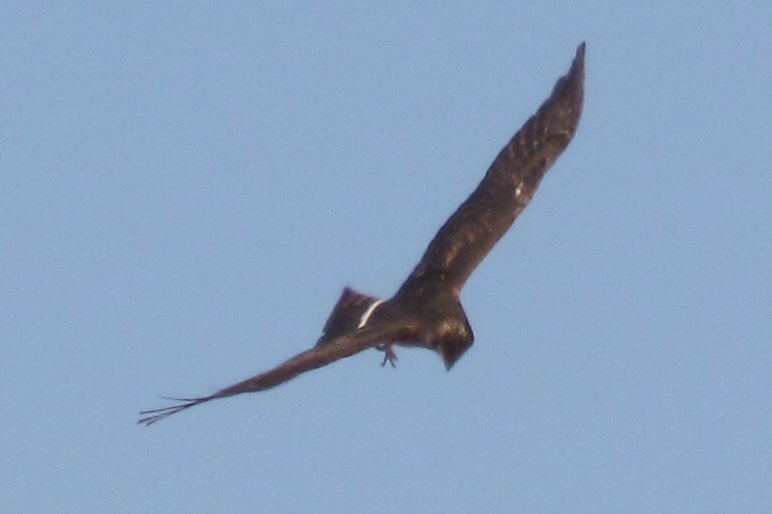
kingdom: Animalia
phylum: Chordata
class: Aves
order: Accipitriformes
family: Accipitridae
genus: Circus
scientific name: Circus cyaneus
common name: Hen harrier
